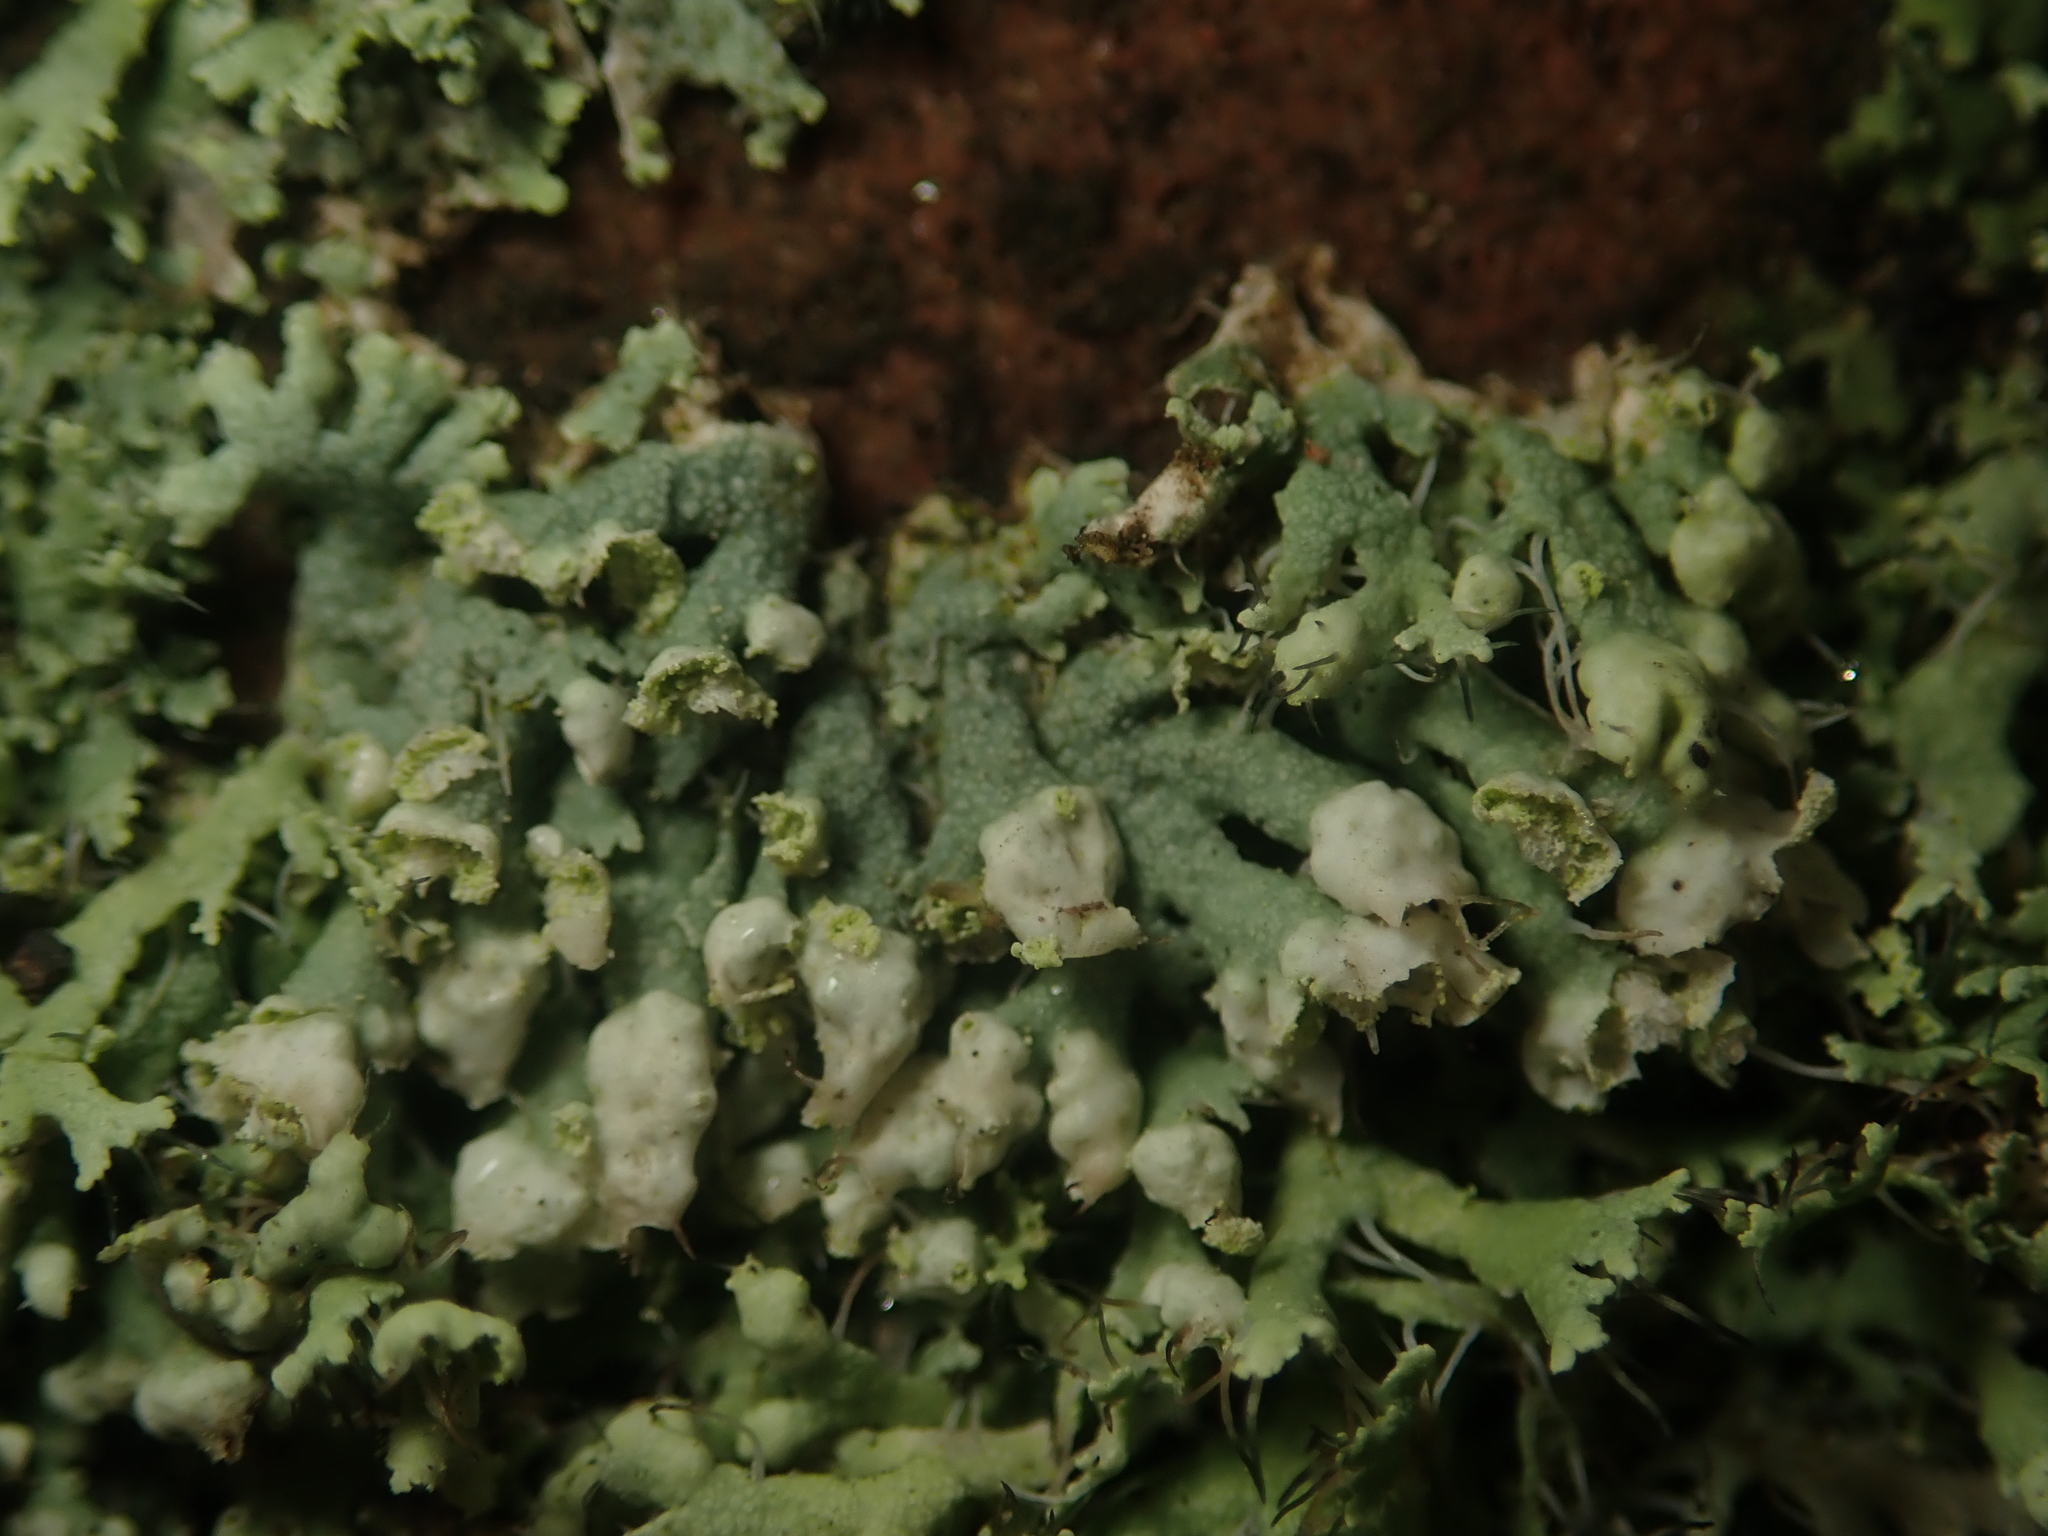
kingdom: Fungi
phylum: Ascomycota
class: Lecanoromycetes
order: Caliciales
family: Physciaceae
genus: Physcia
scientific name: Physcia adscendens
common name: Hooded rosette lichen
